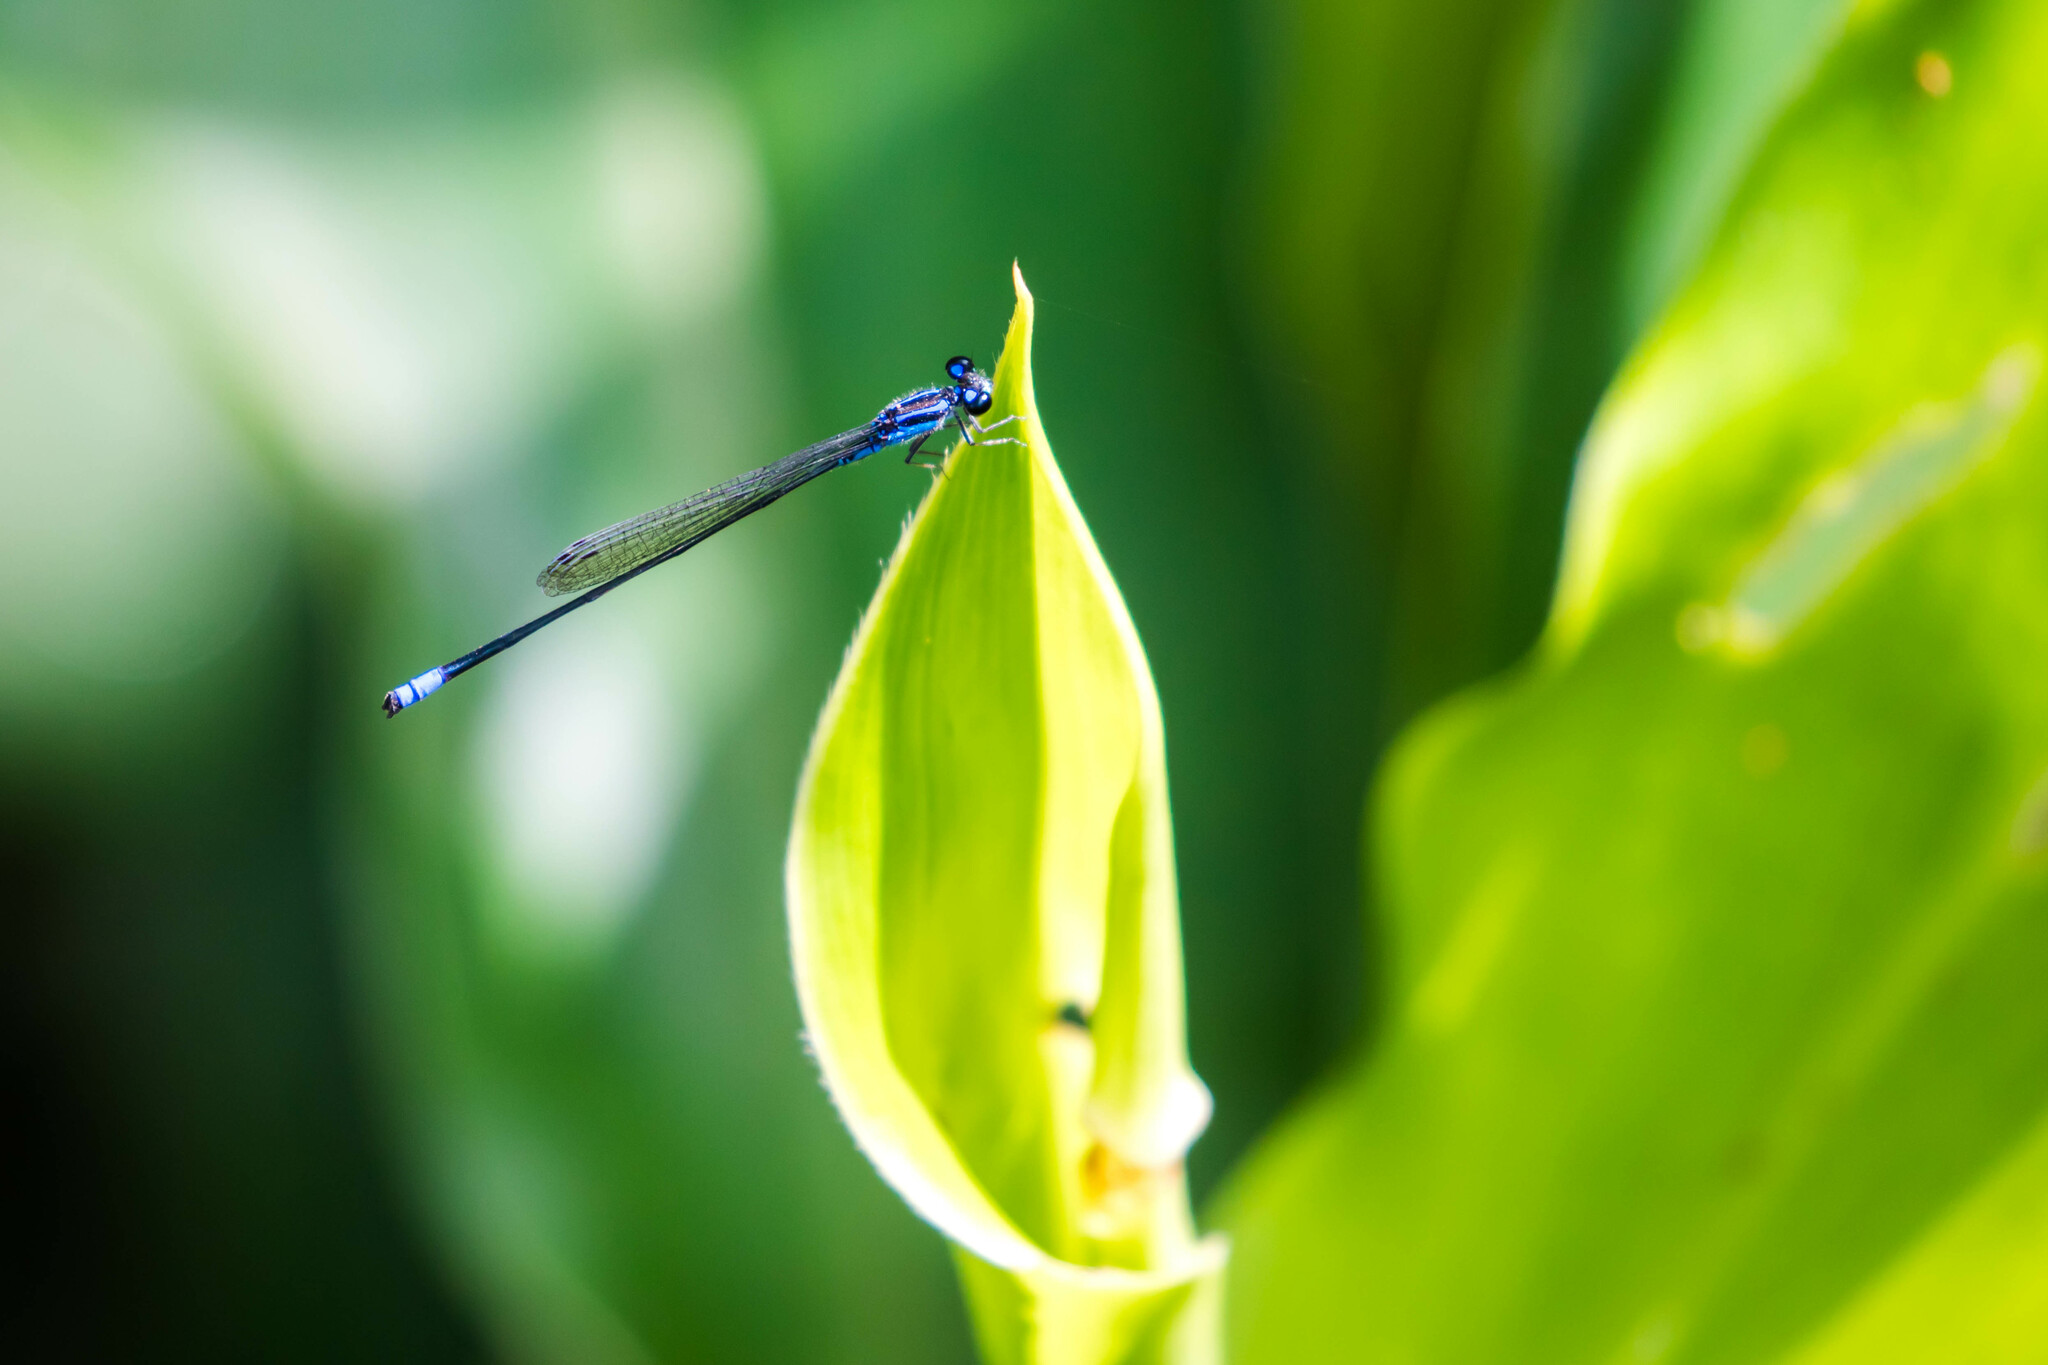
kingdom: Animalia
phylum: Arthropoda
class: Insecta
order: Odonata
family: Coenagrionidae
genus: Acanthagrion
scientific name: Acanthagrion trilobatum
